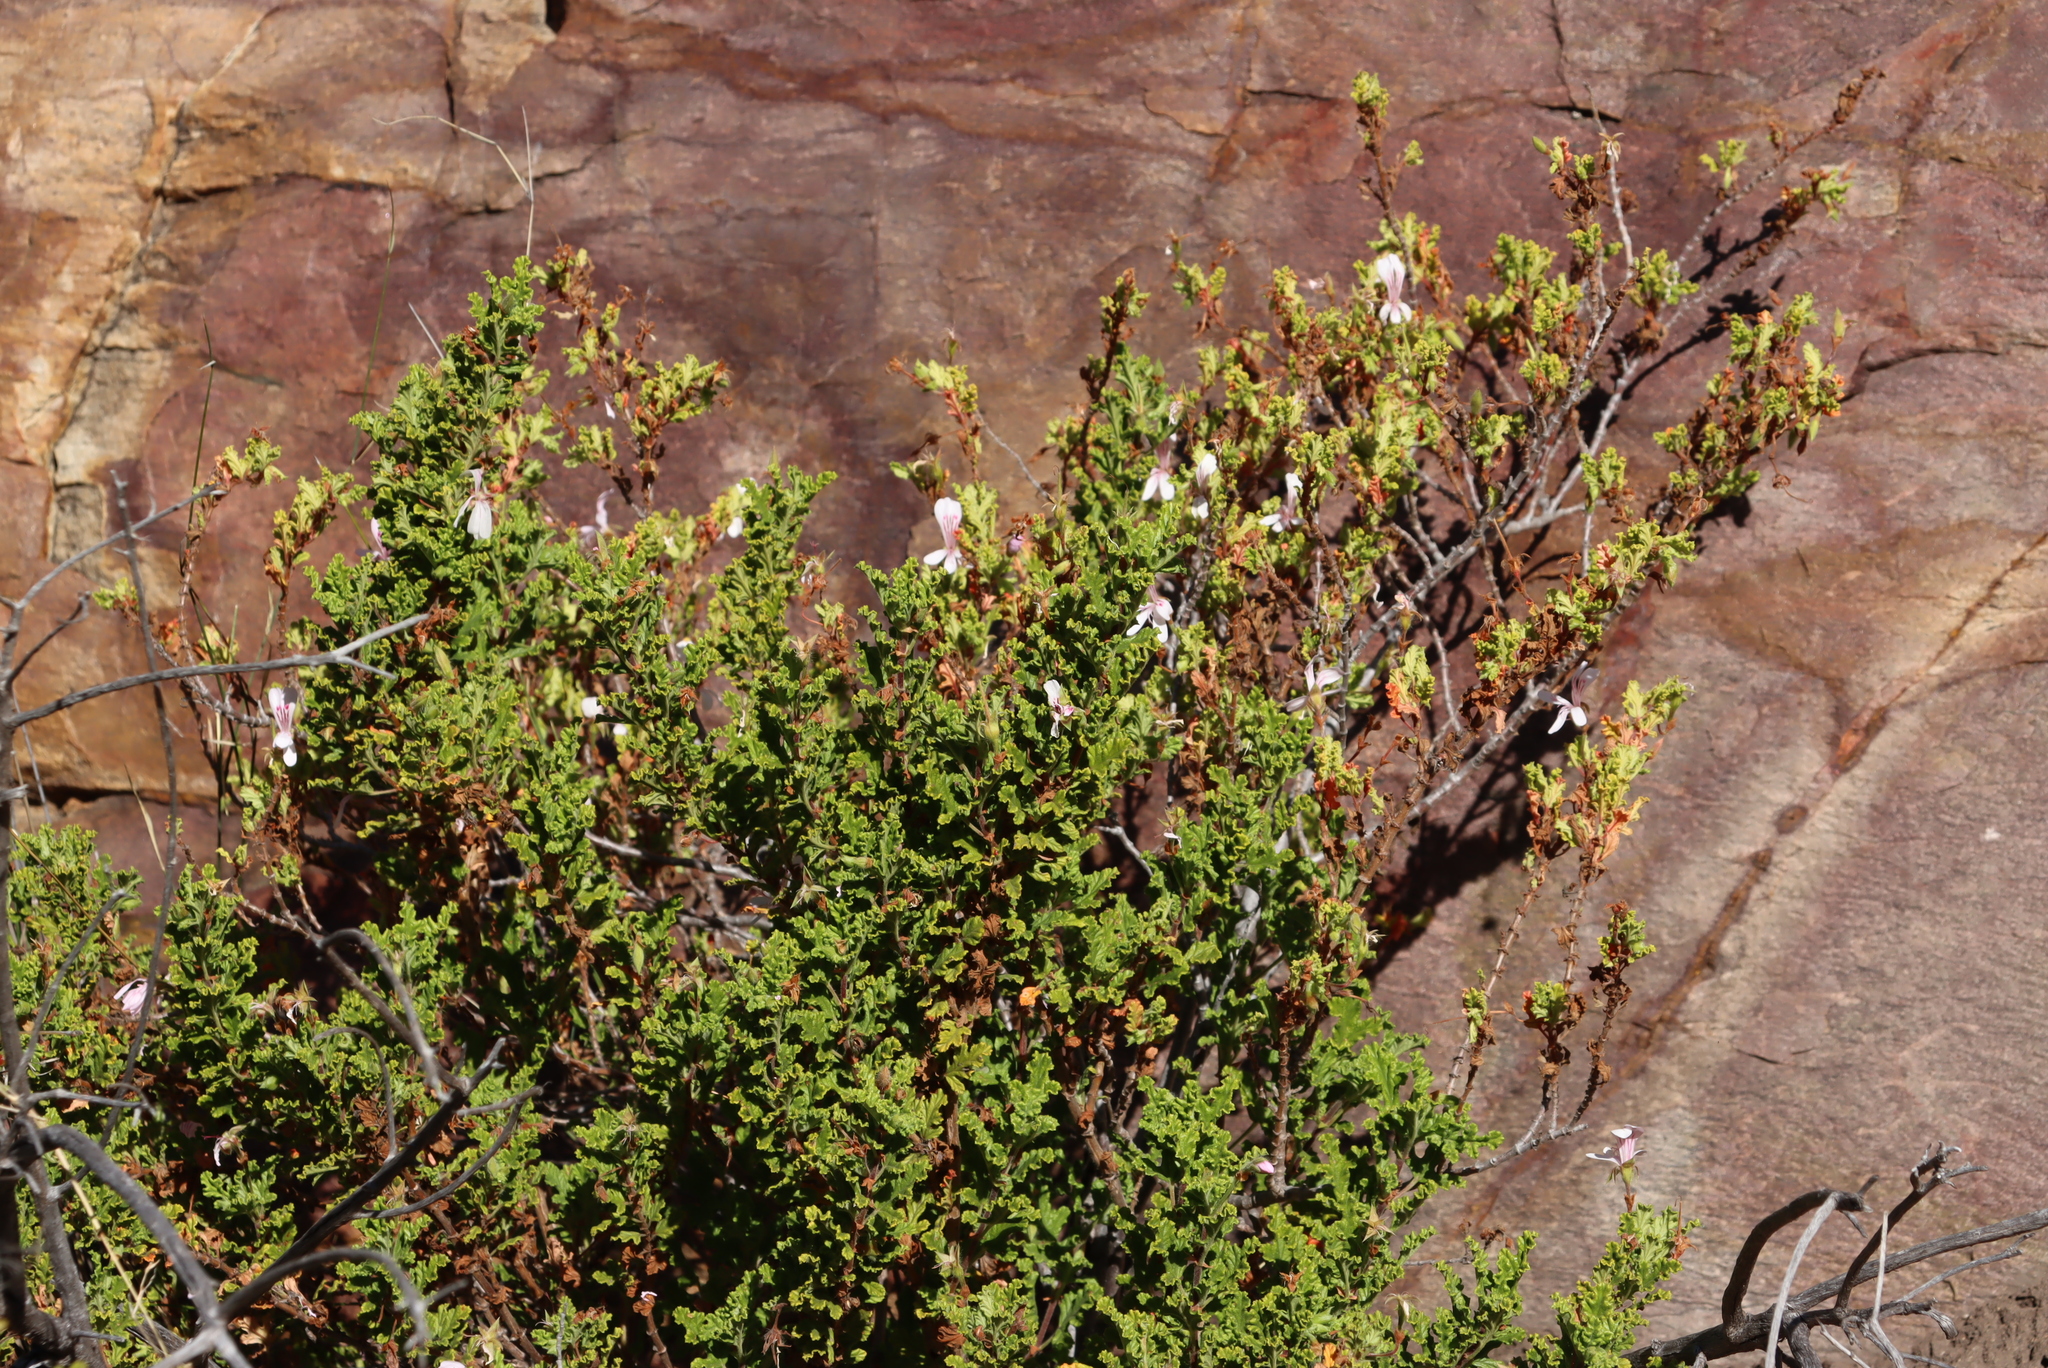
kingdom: Plantae
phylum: Tracheophyta
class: Magnoliopsida
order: Geraniales
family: Geraniaceae
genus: Pelargonium
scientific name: Pelargonium panduriforme
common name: Oakleaf garden geranium
